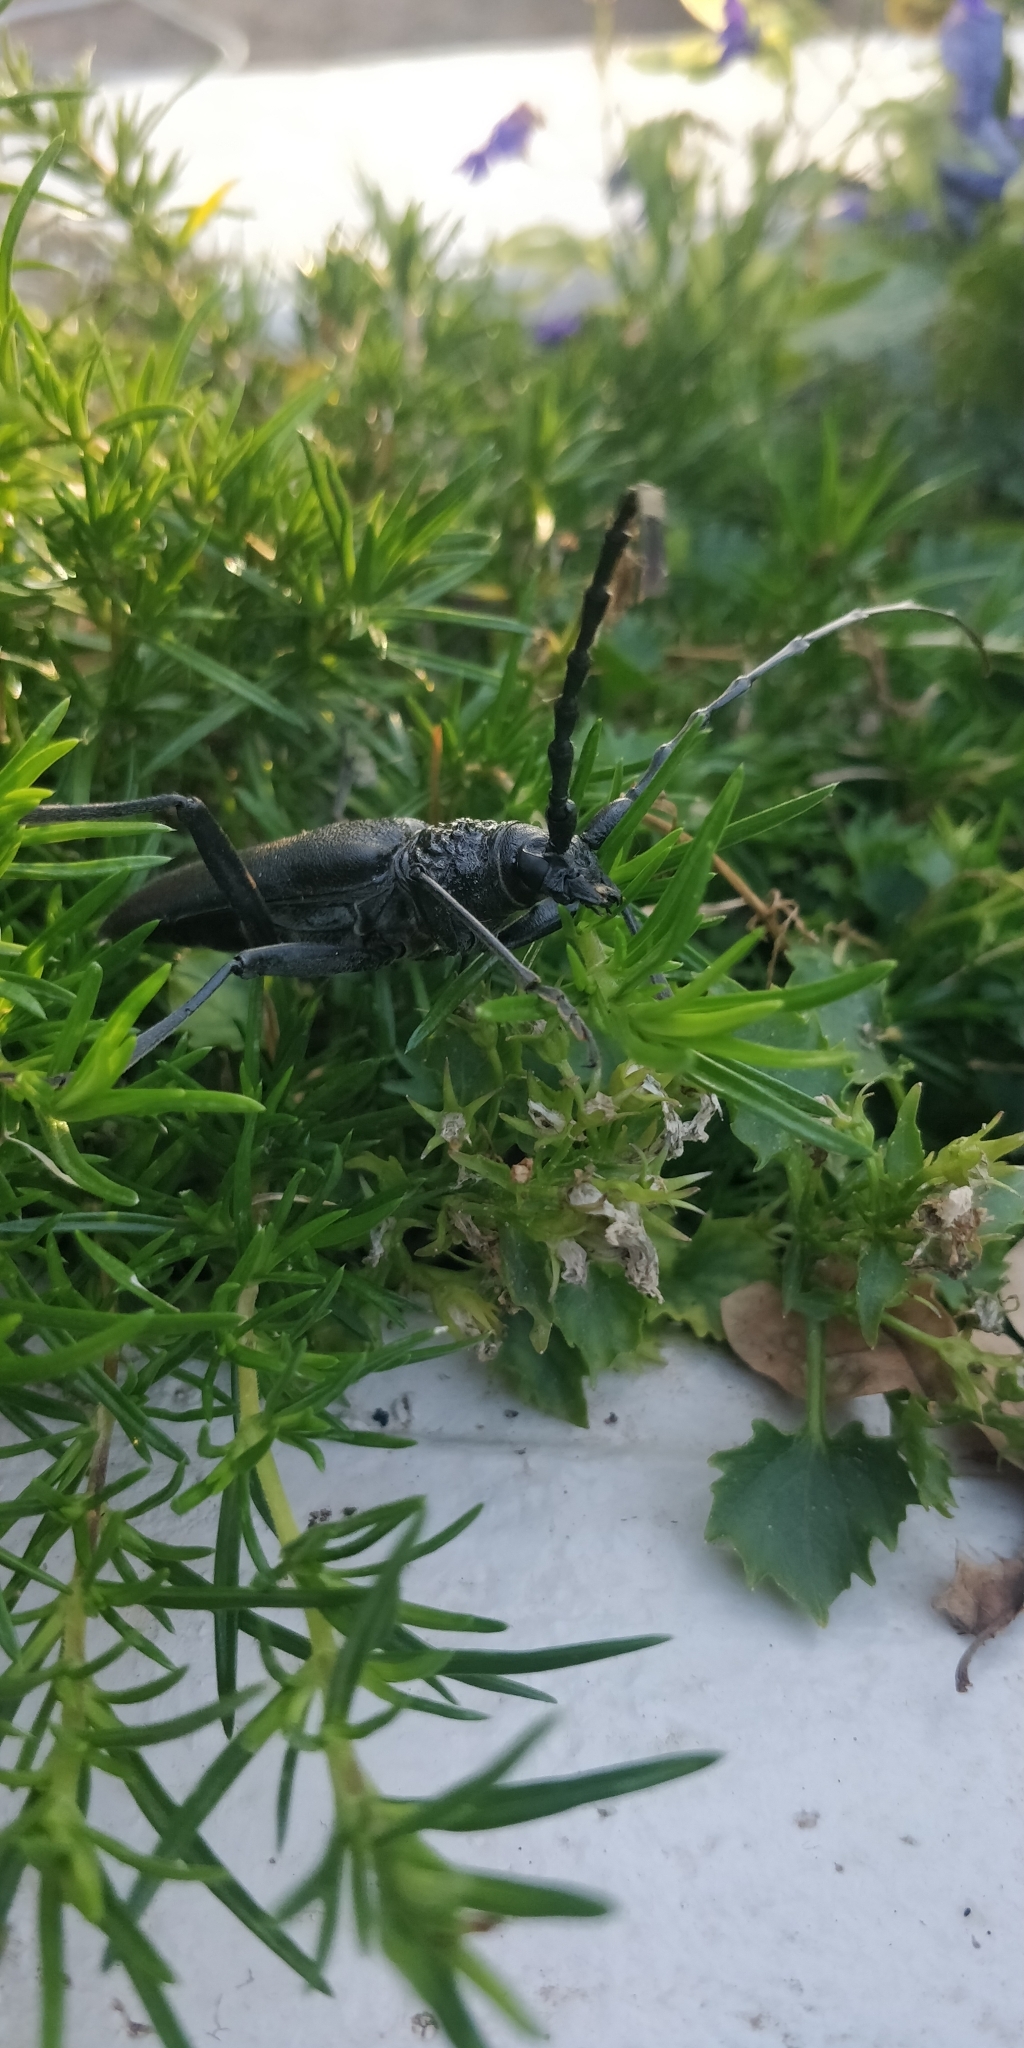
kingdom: Animalia
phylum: Arthropoda
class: Insecta
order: Coleoptera
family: Cerambycidae
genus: Cerambyx
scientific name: Cerambyx cerdo
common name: Cerambyx longicorn
